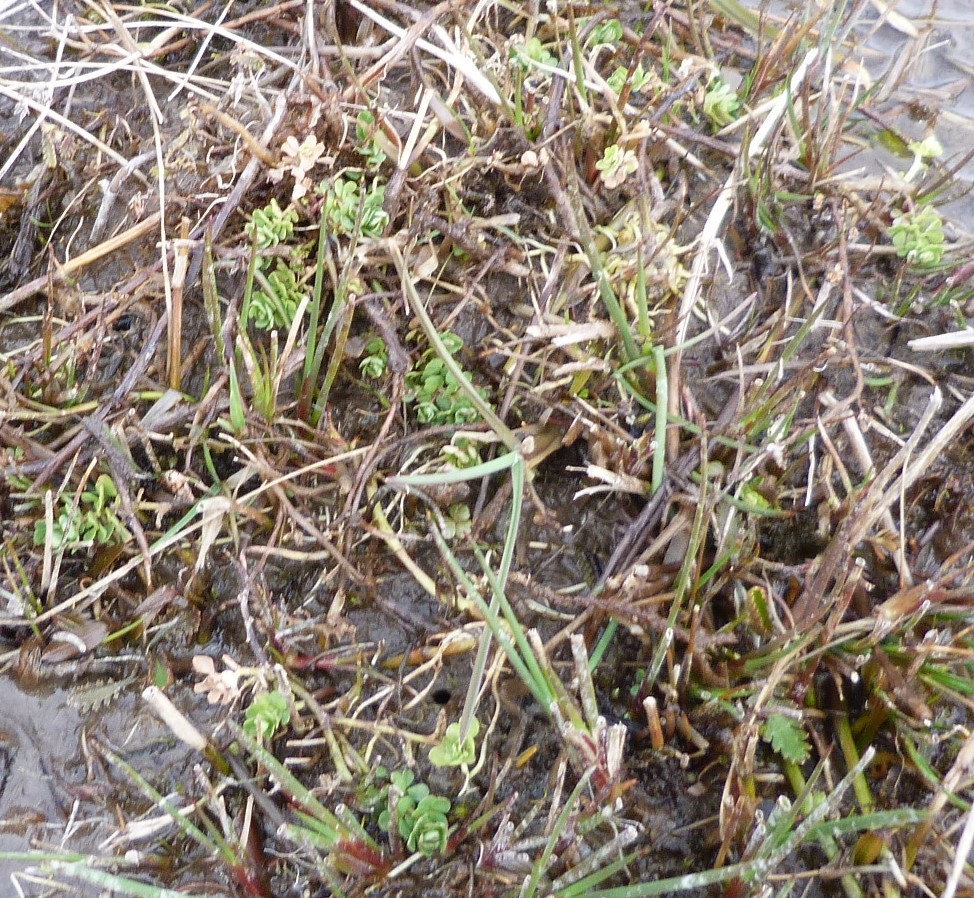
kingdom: Plantae
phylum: Tracheophyta
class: Magnoliopsida
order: Fabales
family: Fabaceae
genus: Lotus
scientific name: Lotus pedunculatus
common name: Greater birdsfoot-trefoil
